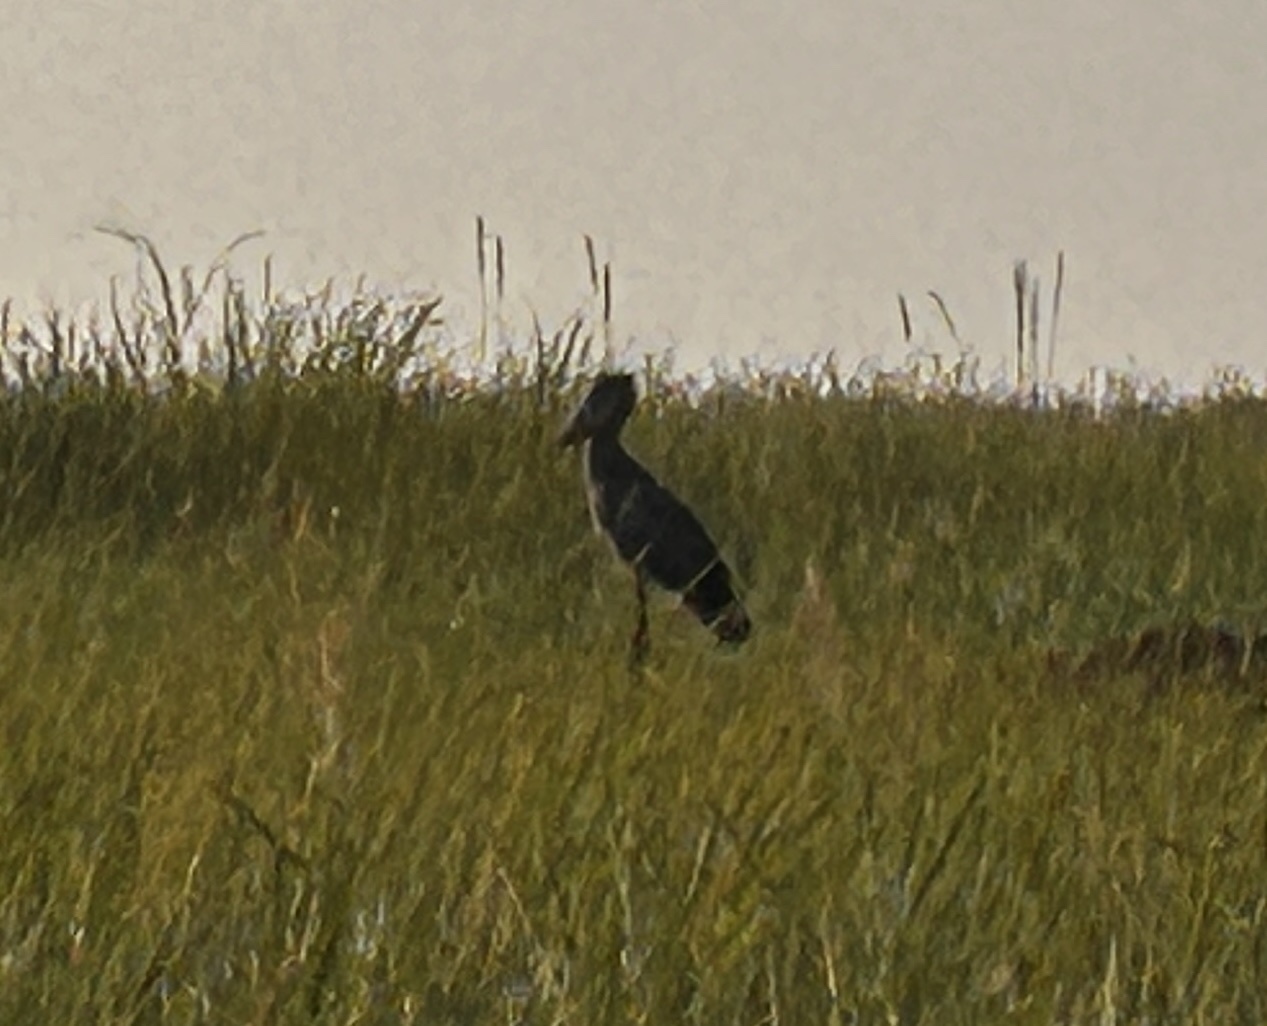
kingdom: Animalia
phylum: Chordata
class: Aves
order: Pelecaniformes
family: Balaenicipitidae
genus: Balaeniceps
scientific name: Balaeniceps rex
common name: Shoebill
